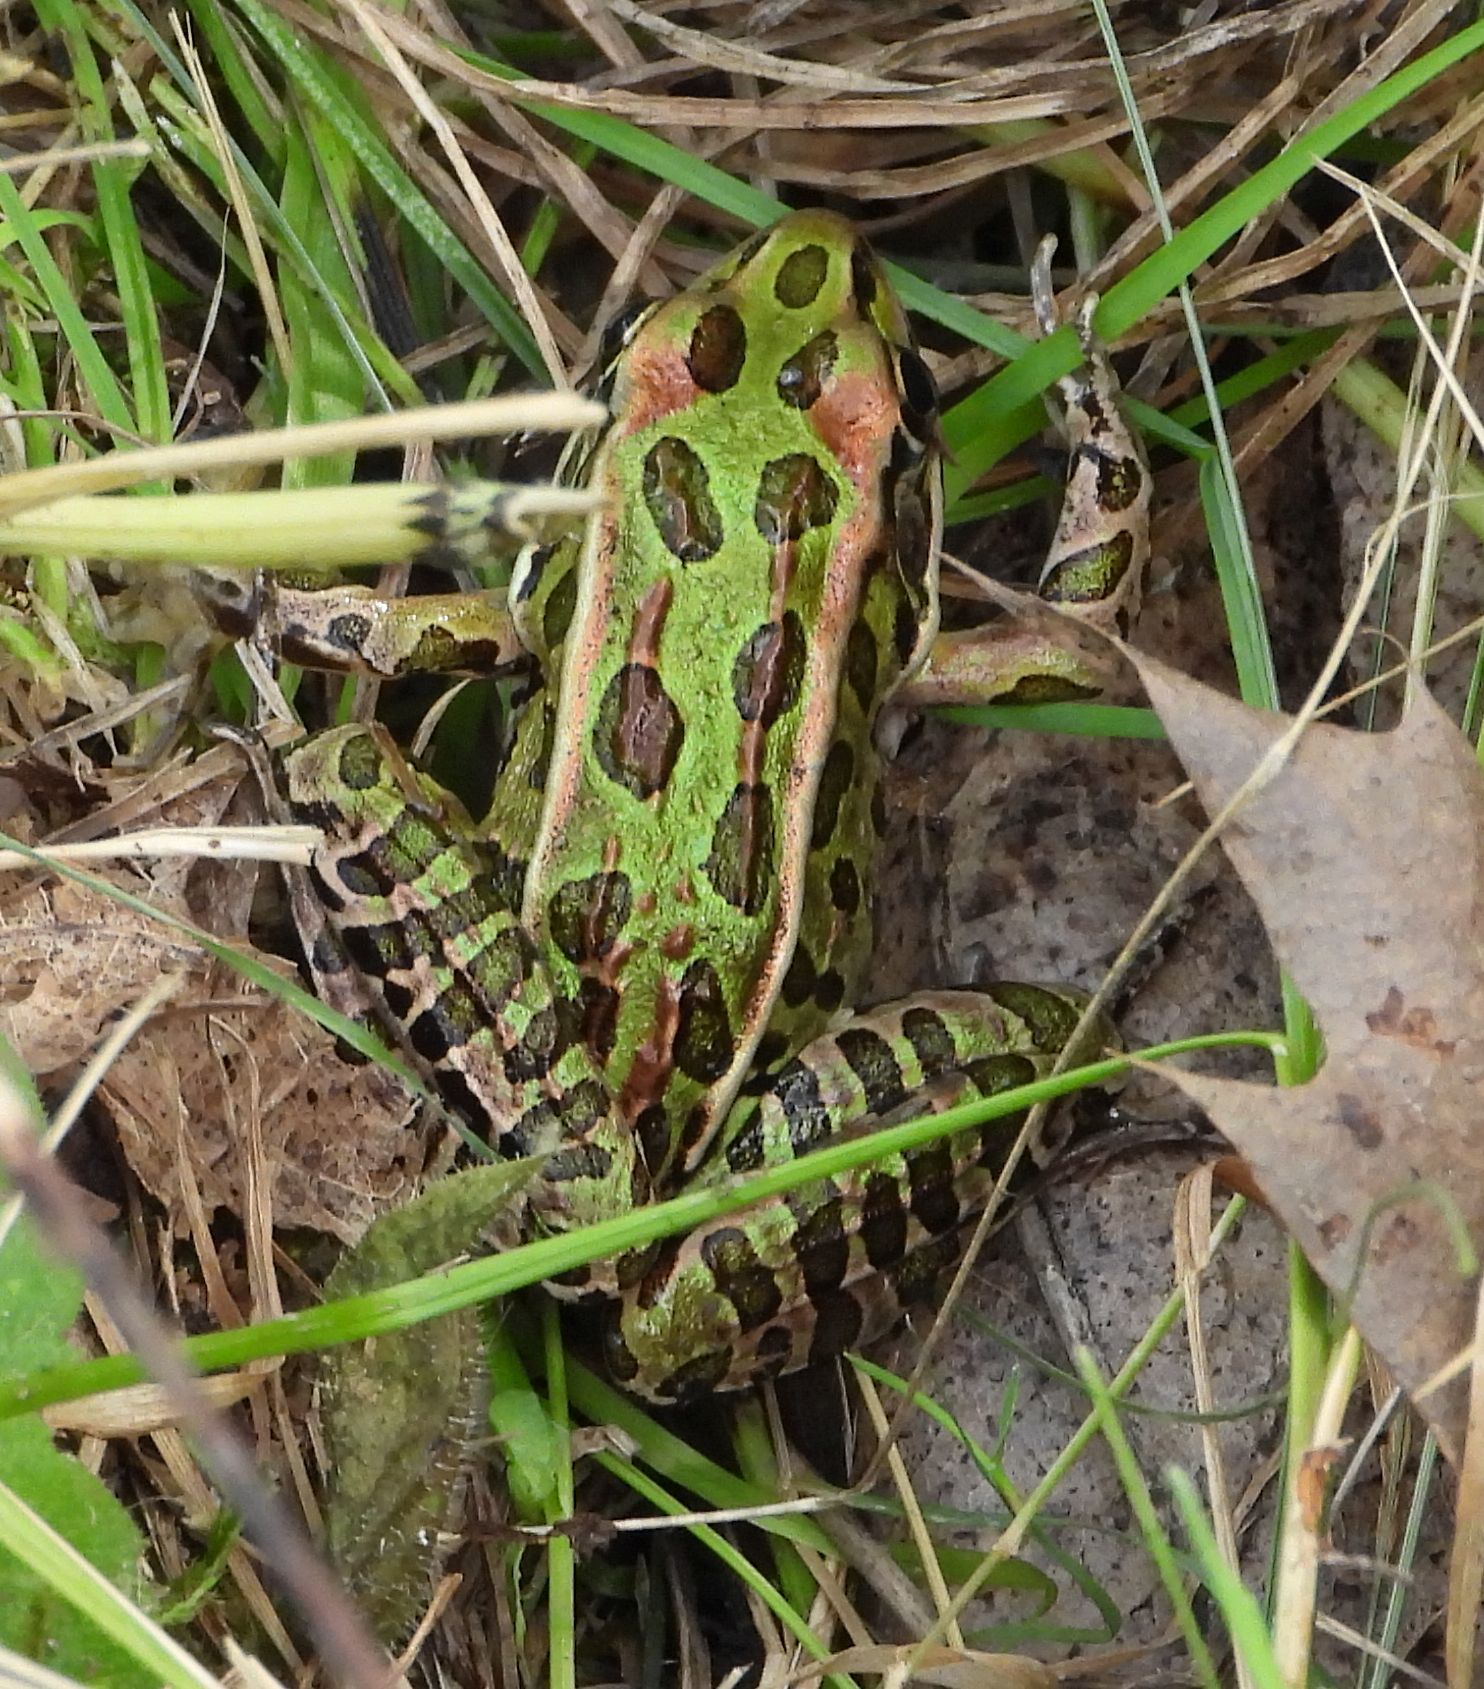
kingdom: Animalia
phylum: Chordata
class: Amphibia
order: Anura
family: Ranidae
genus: Lithobates
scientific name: Lithobates pipiens
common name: Northern leopard frog
